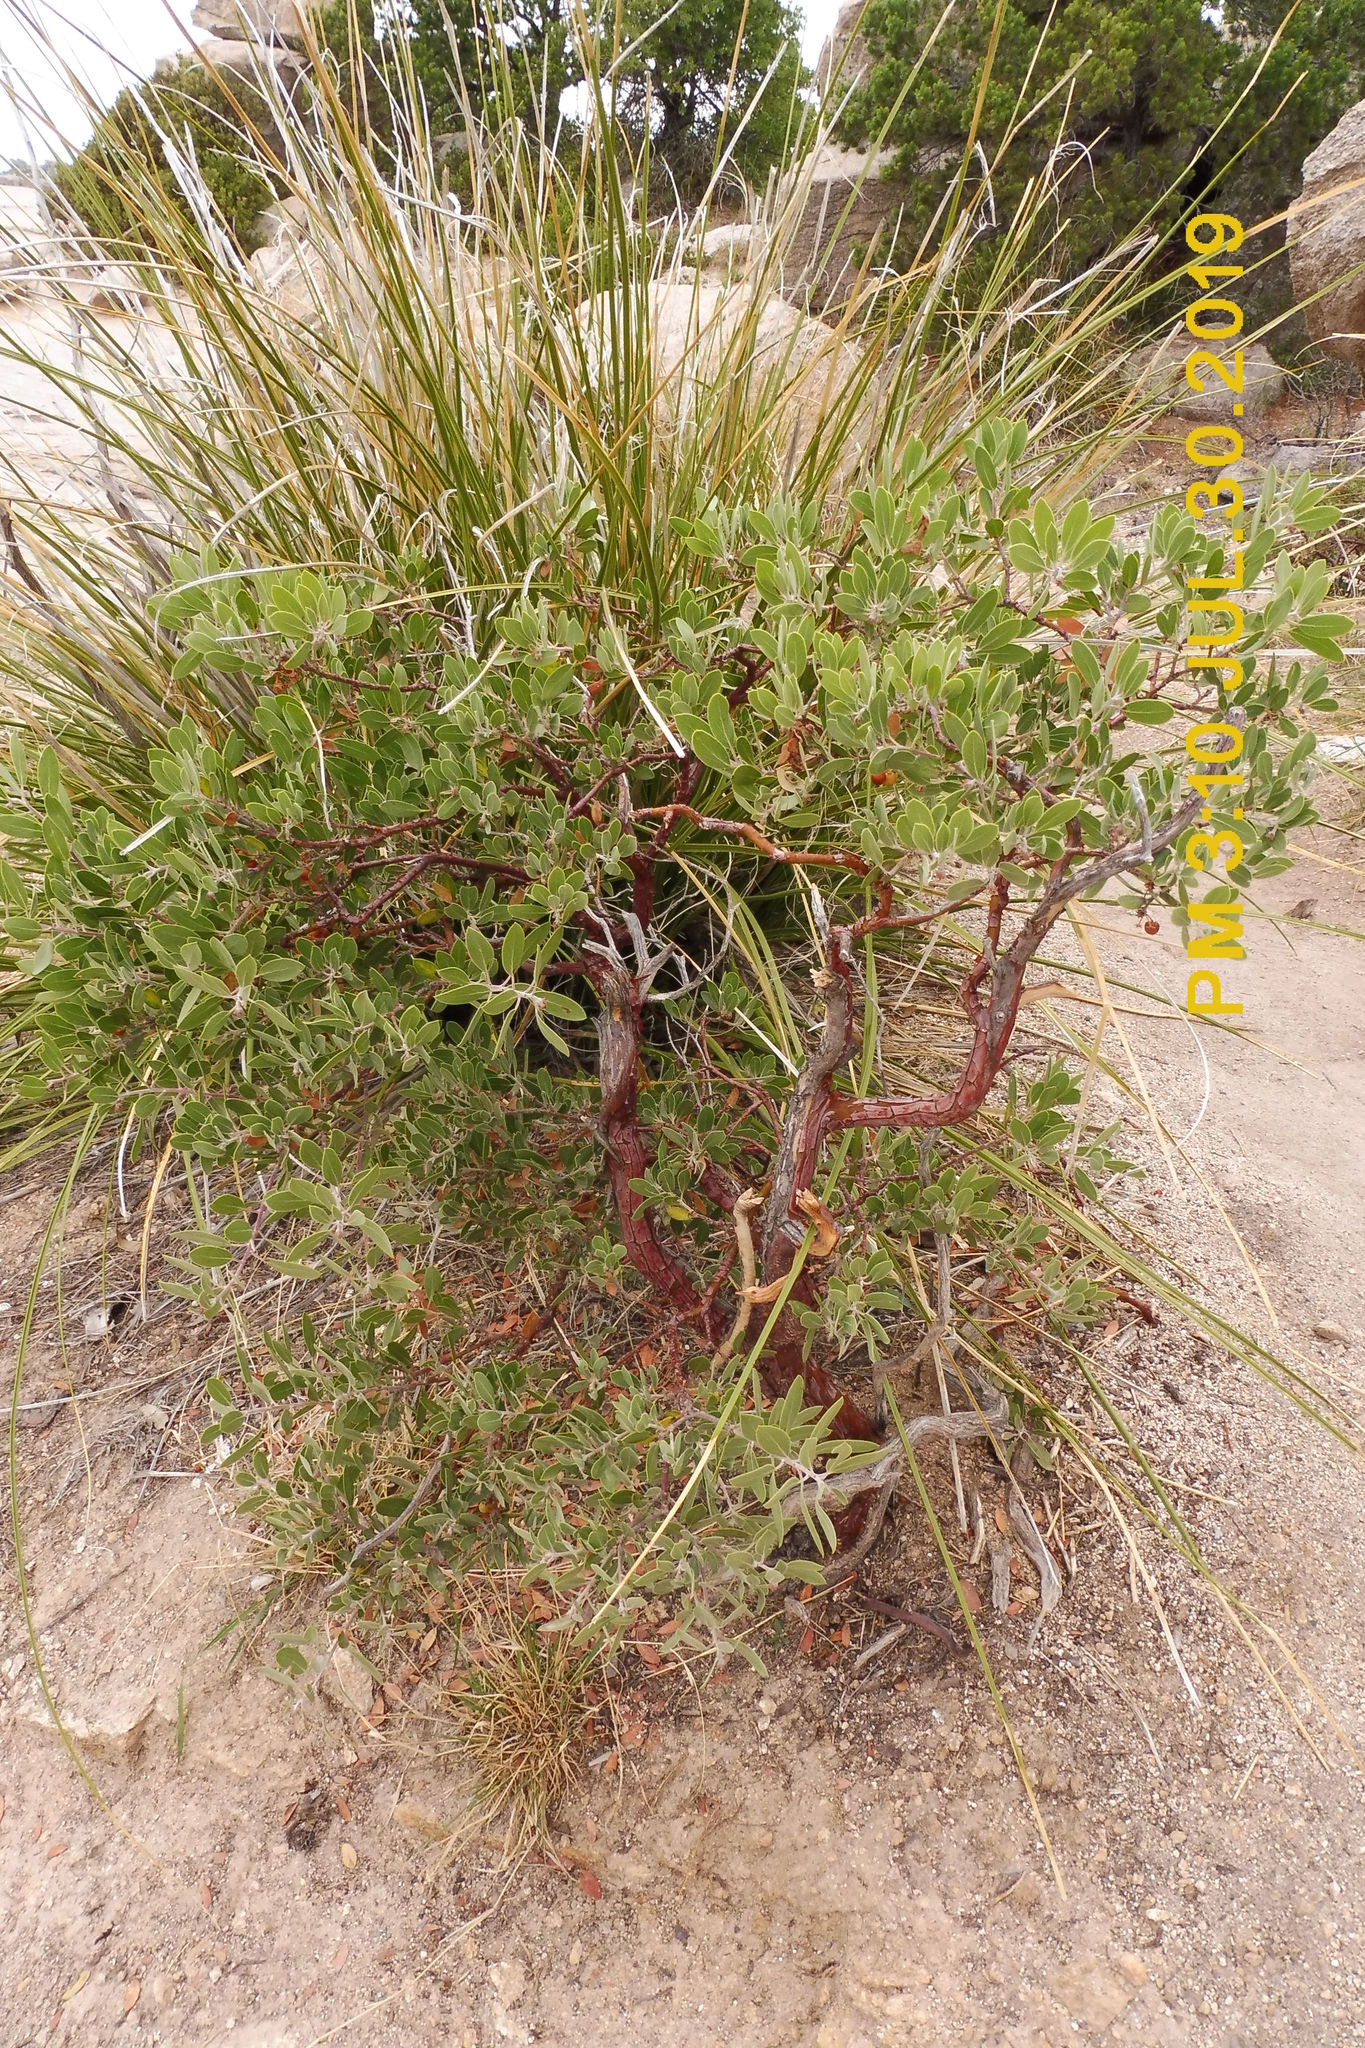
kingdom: Plantae
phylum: Tracheophyta
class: Magnoliopsida
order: Ericales
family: Ericaceae
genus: Arctostaphylos
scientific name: Arctostaphylos pungens
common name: Mexican manzanita
